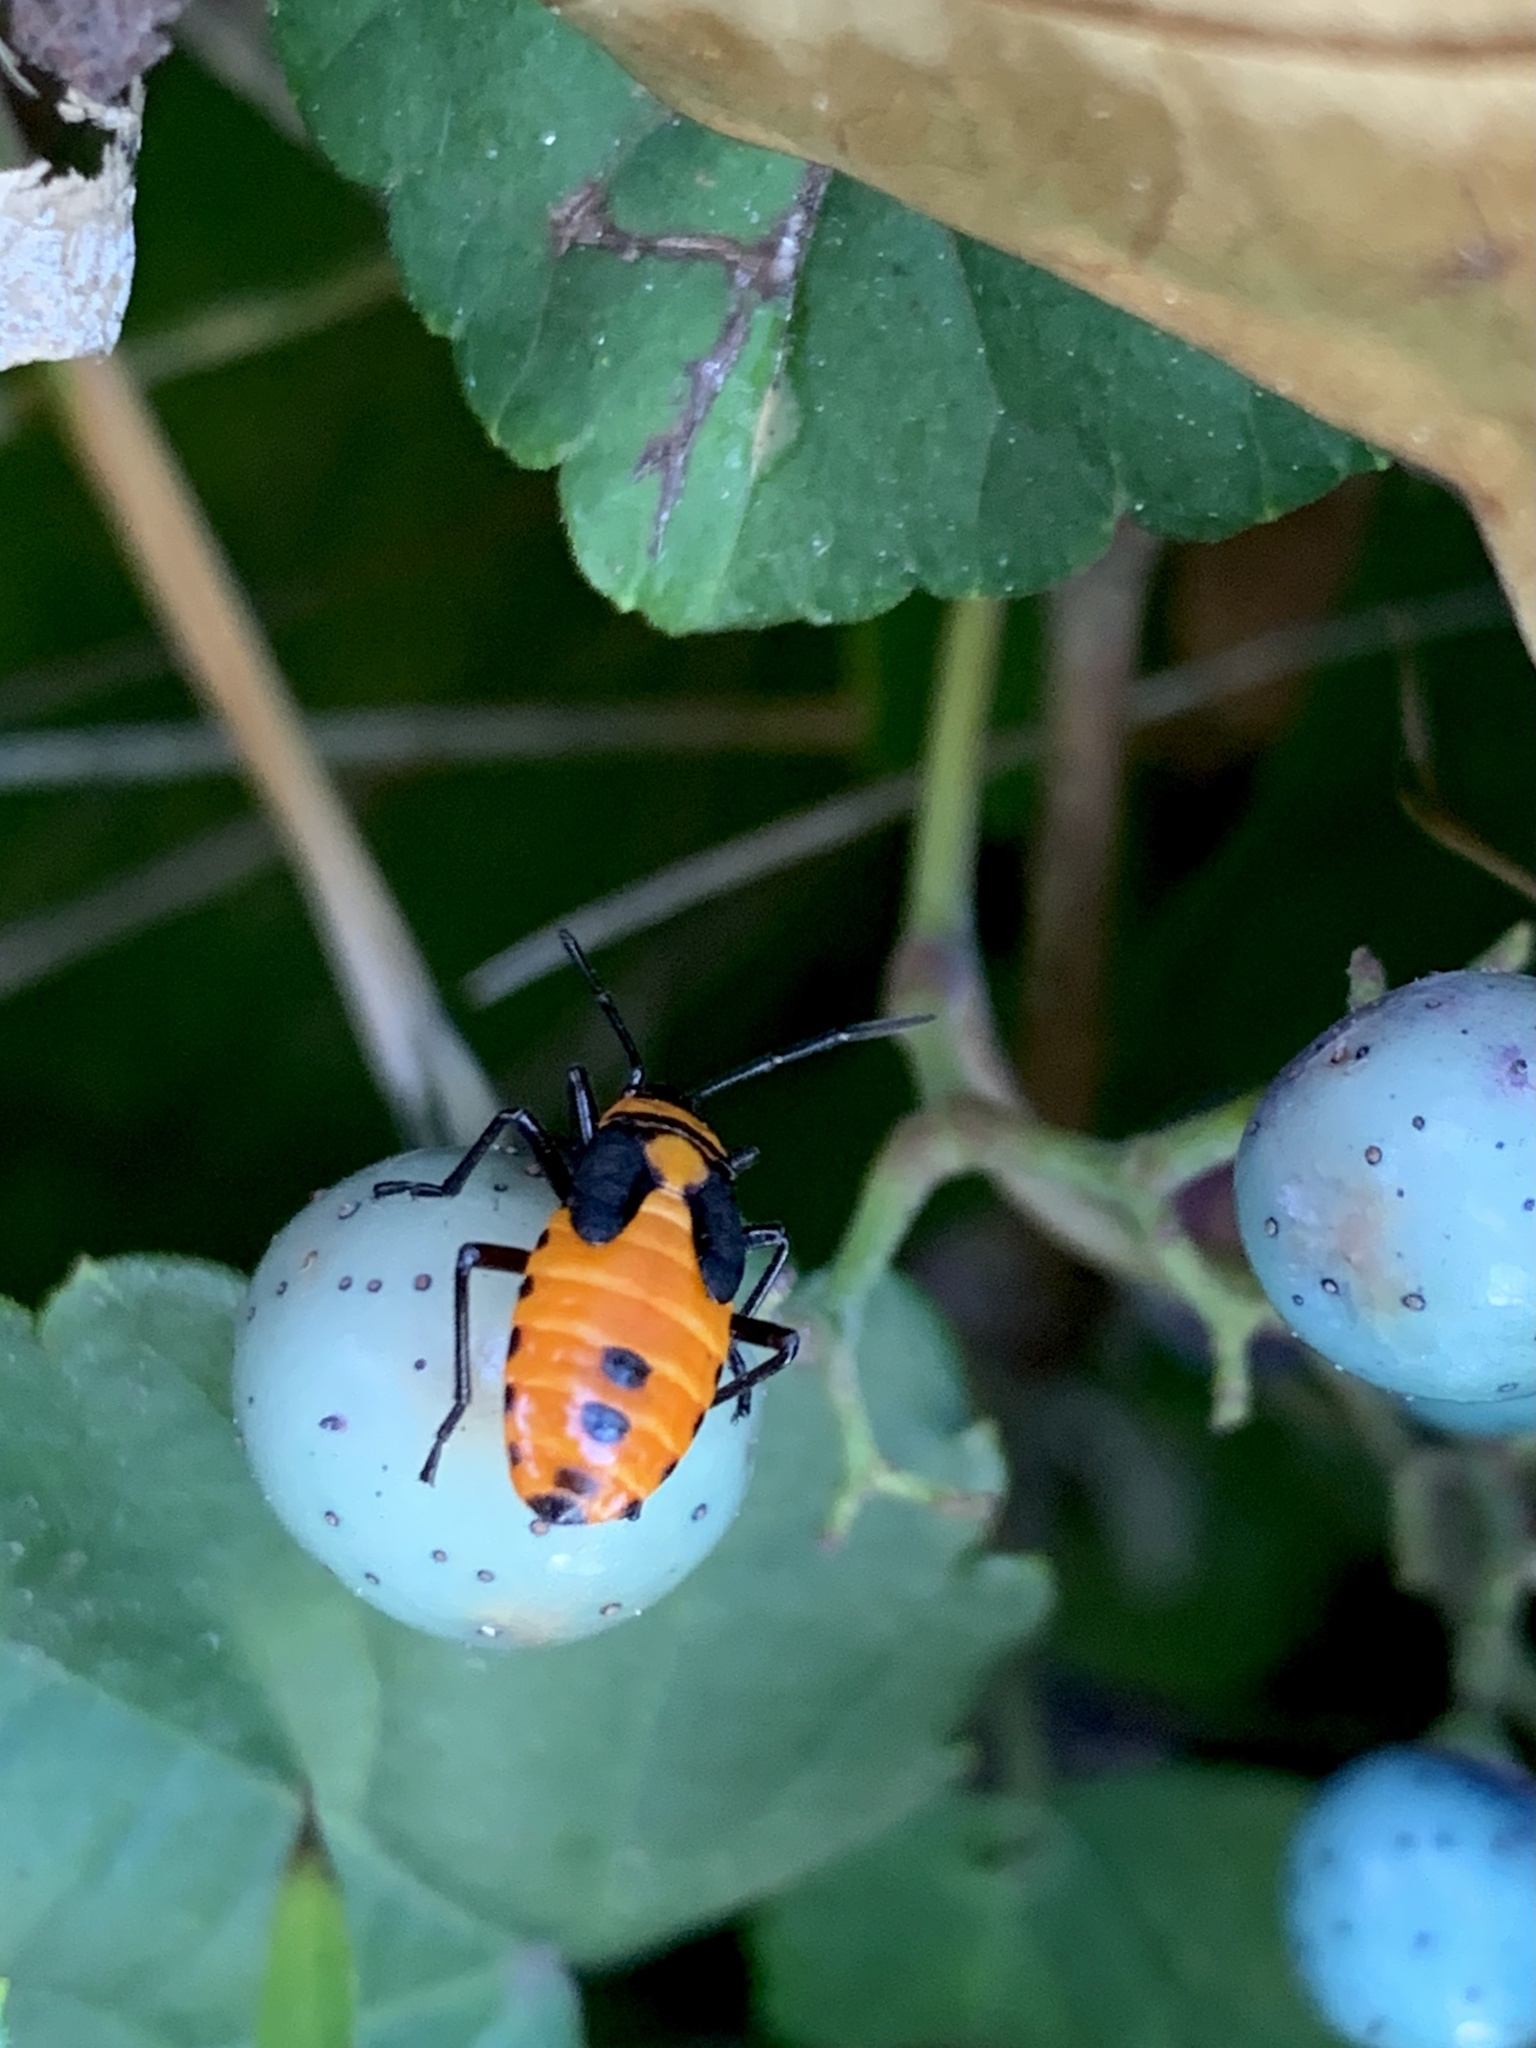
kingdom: Animalia
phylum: Arthropoda
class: Insecta
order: Hemiptera
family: Lygaeidae
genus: Oncopeltus
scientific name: Oncopeltus fasciatus
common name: Large milkweed bug
